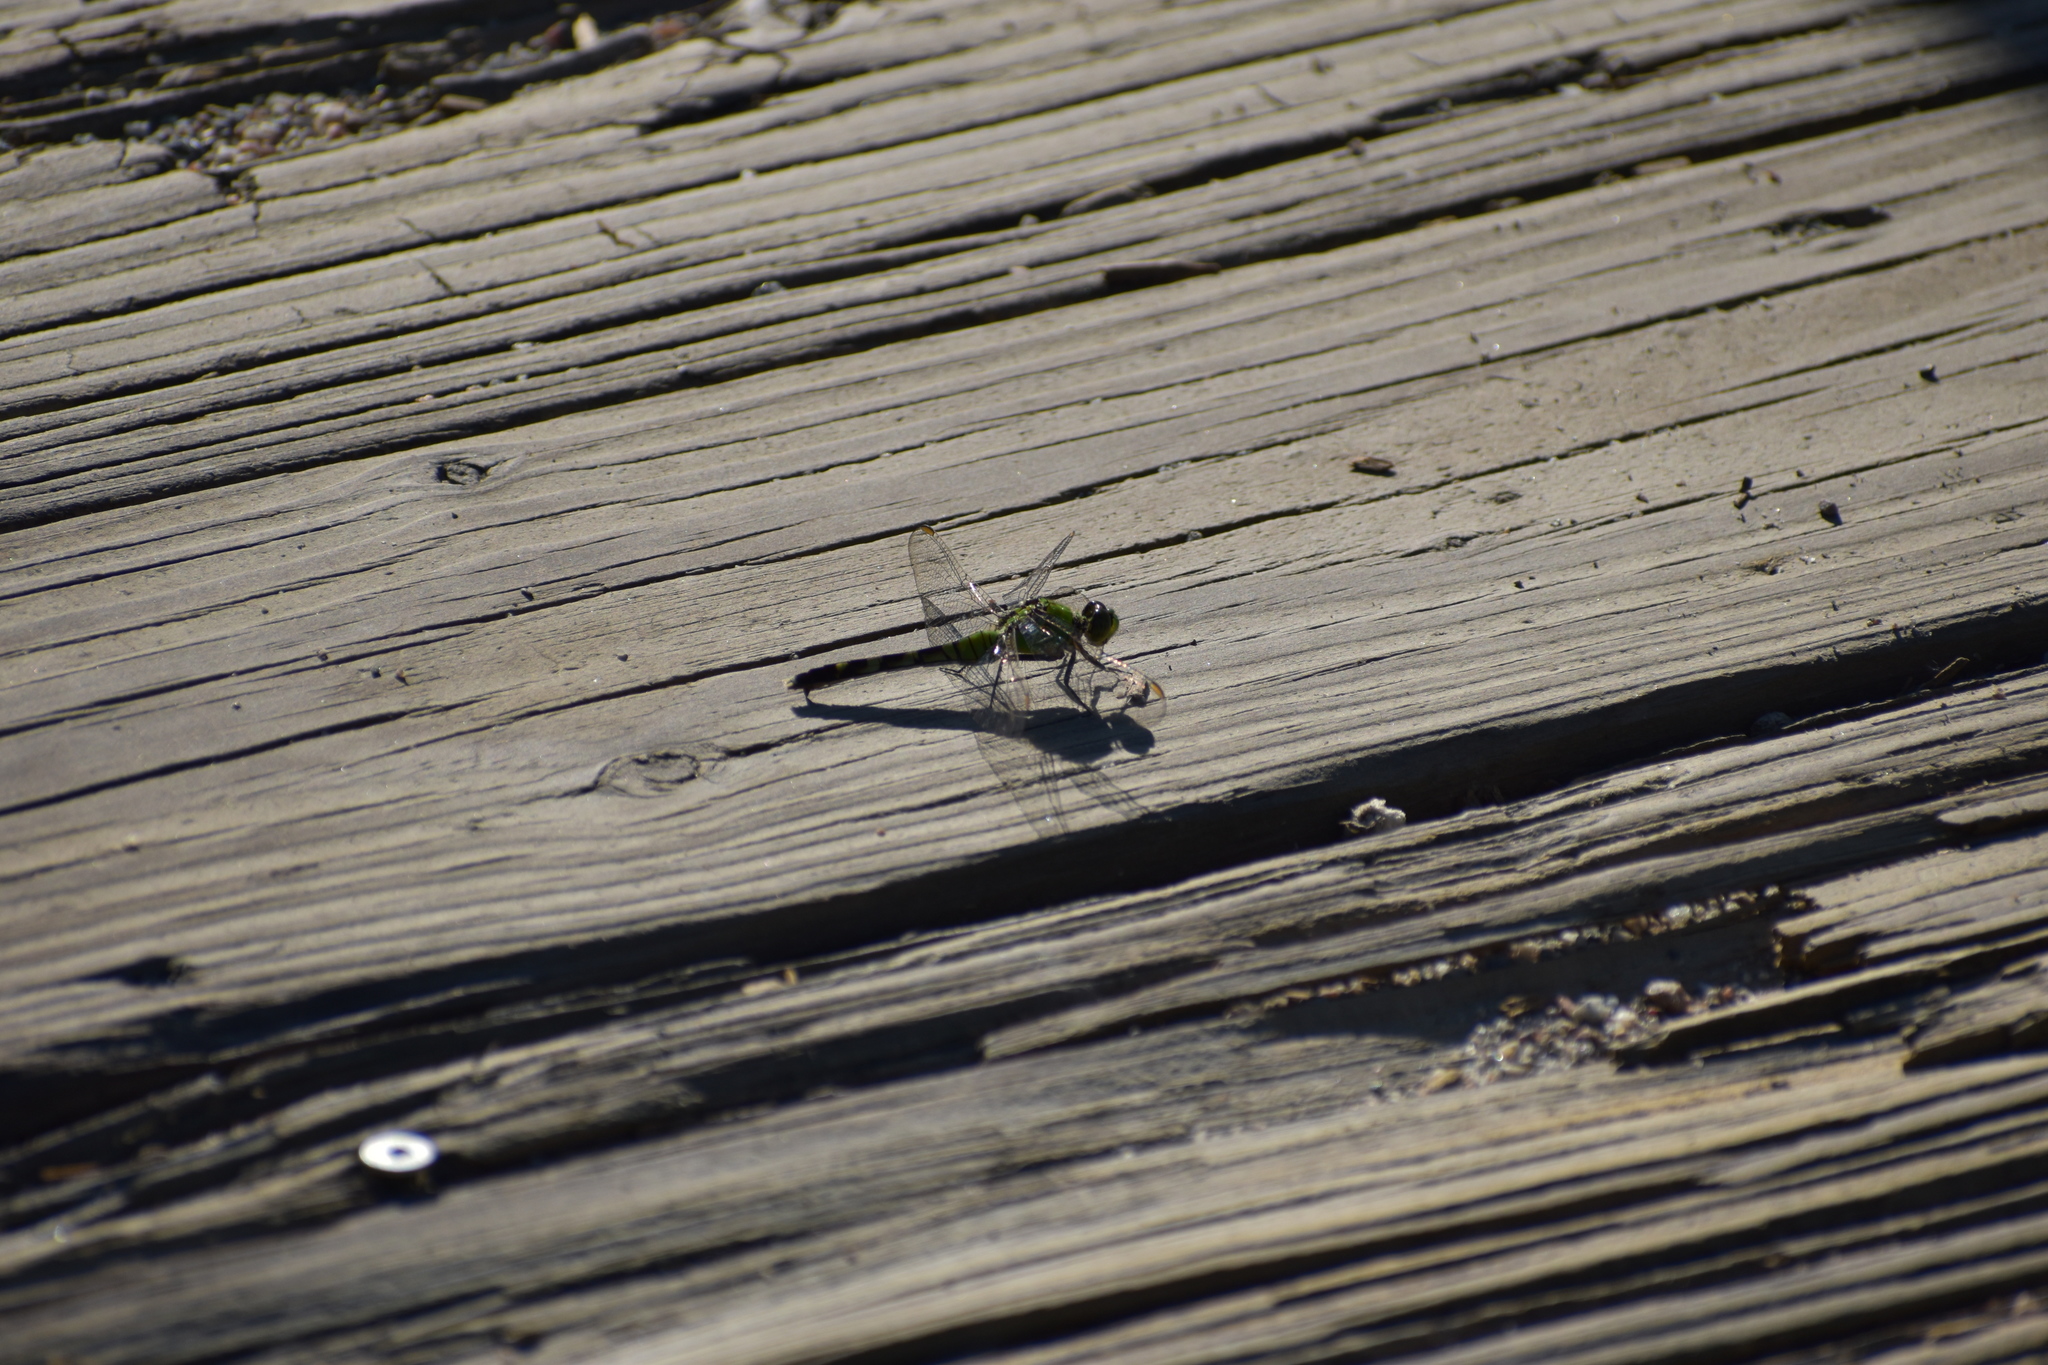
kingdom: Animalia
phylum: Arthropoda
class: Insecta
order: Odonata
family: Libellulidae
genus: Erythemis
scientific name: Erythemis simplicicollis
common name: Eastern pondhawk
